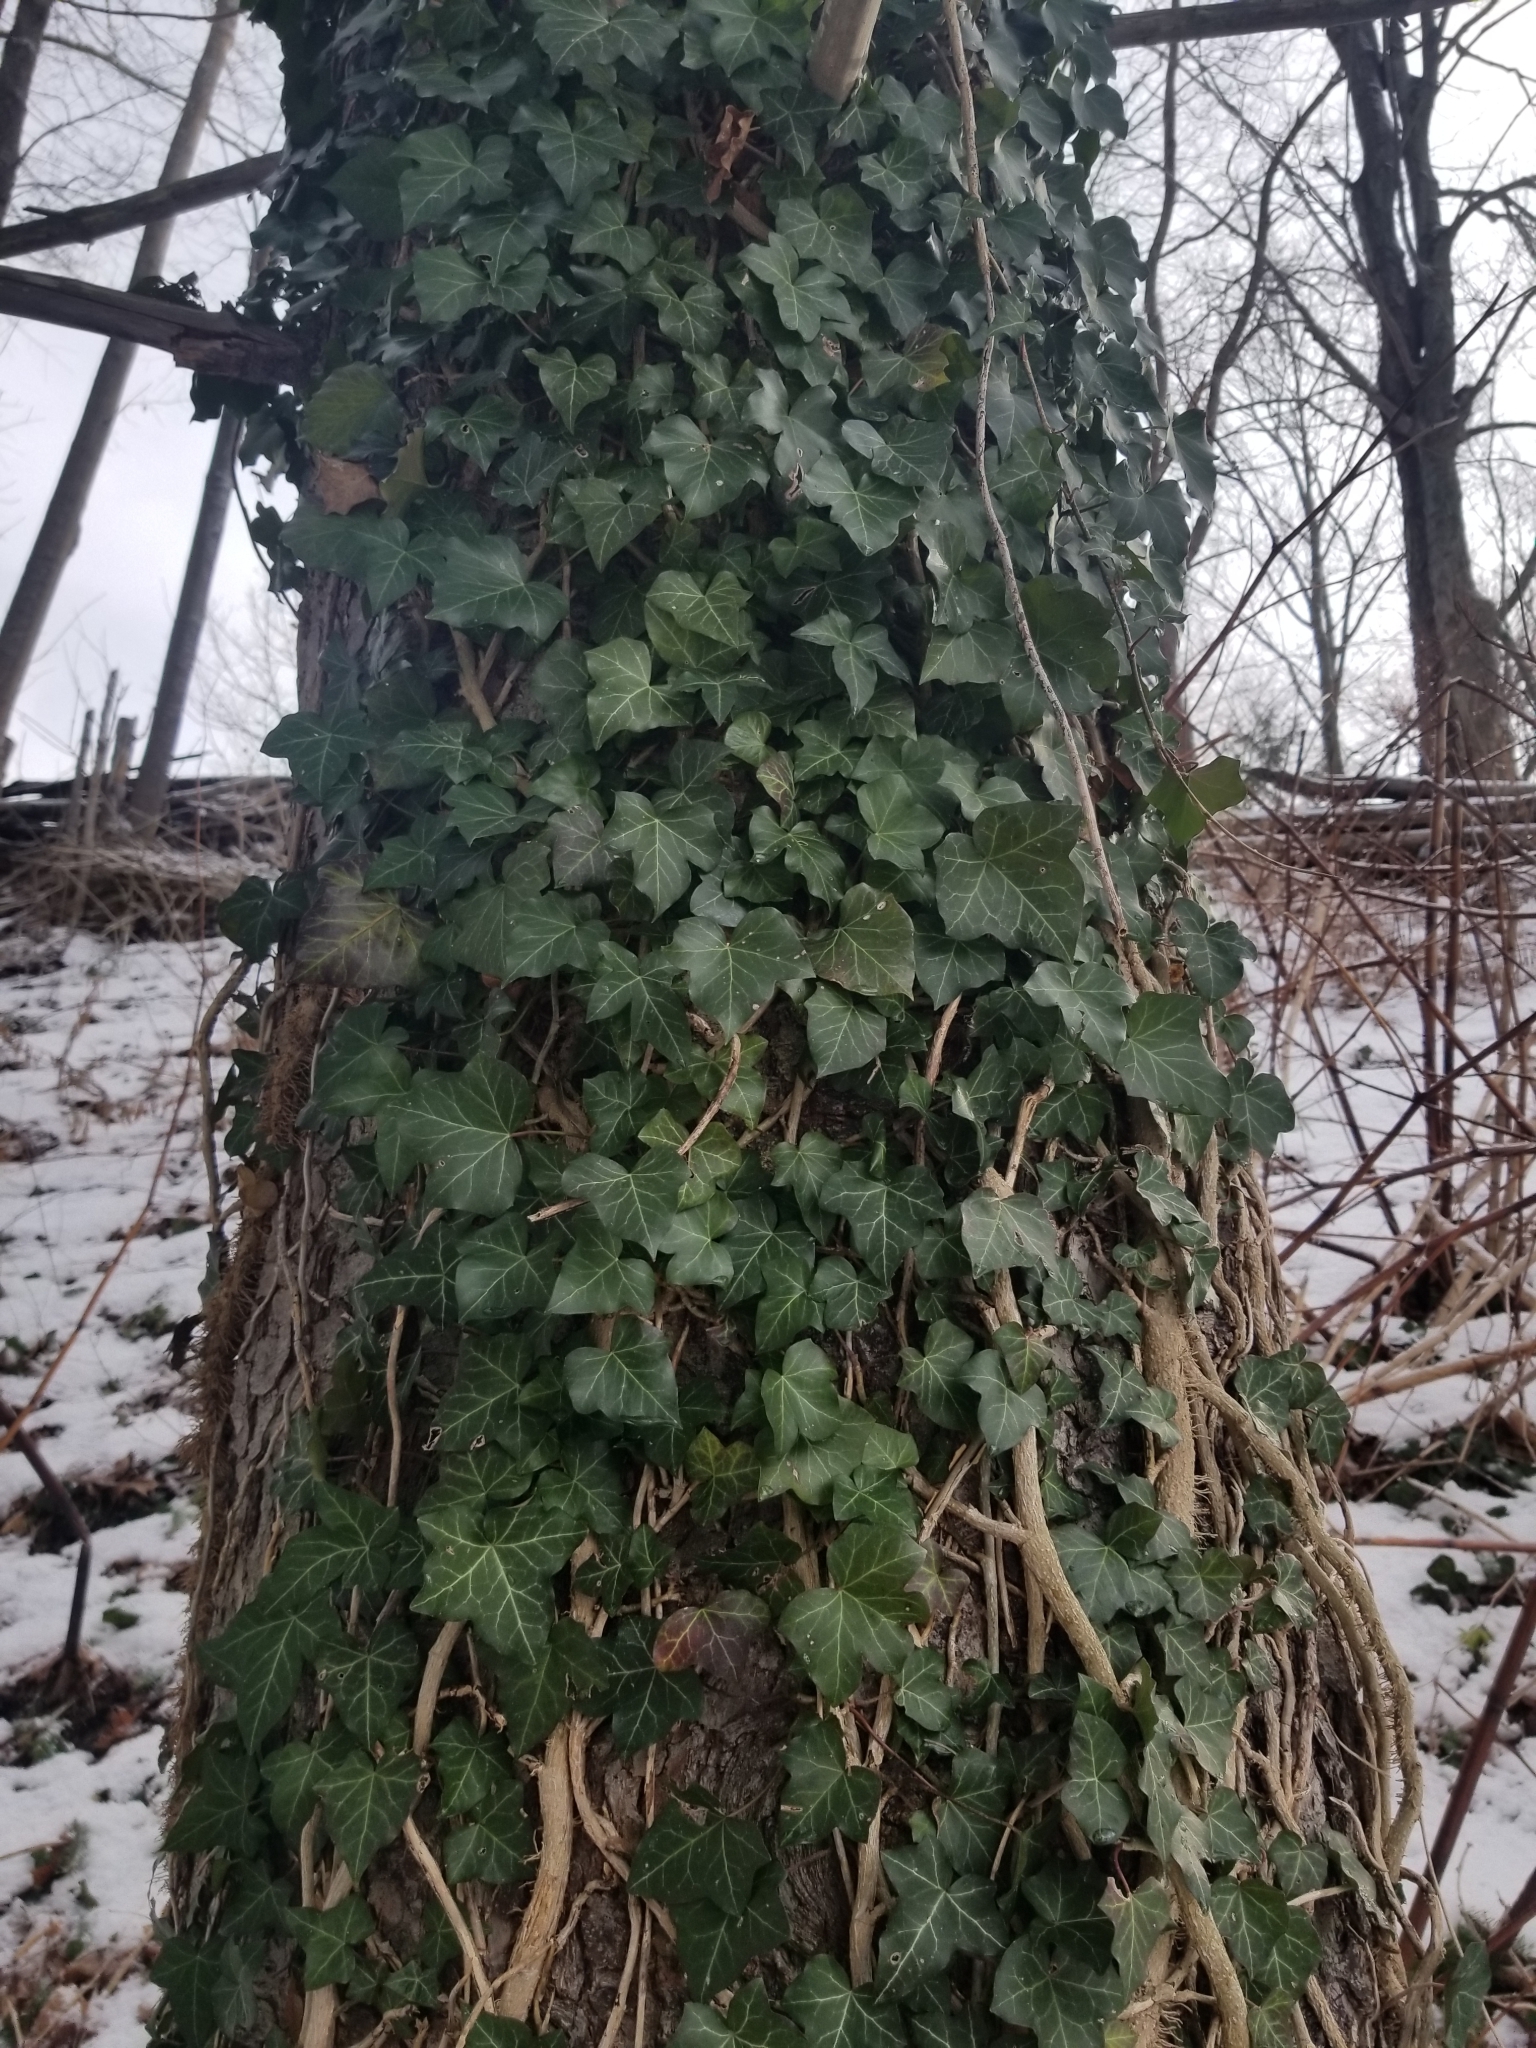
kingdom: Plantae
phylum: Tracheophyta
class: Magnoliopsida
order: Apiales
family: Araliaceae
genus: Hedera
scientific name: Hedera helix
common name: Ivy
